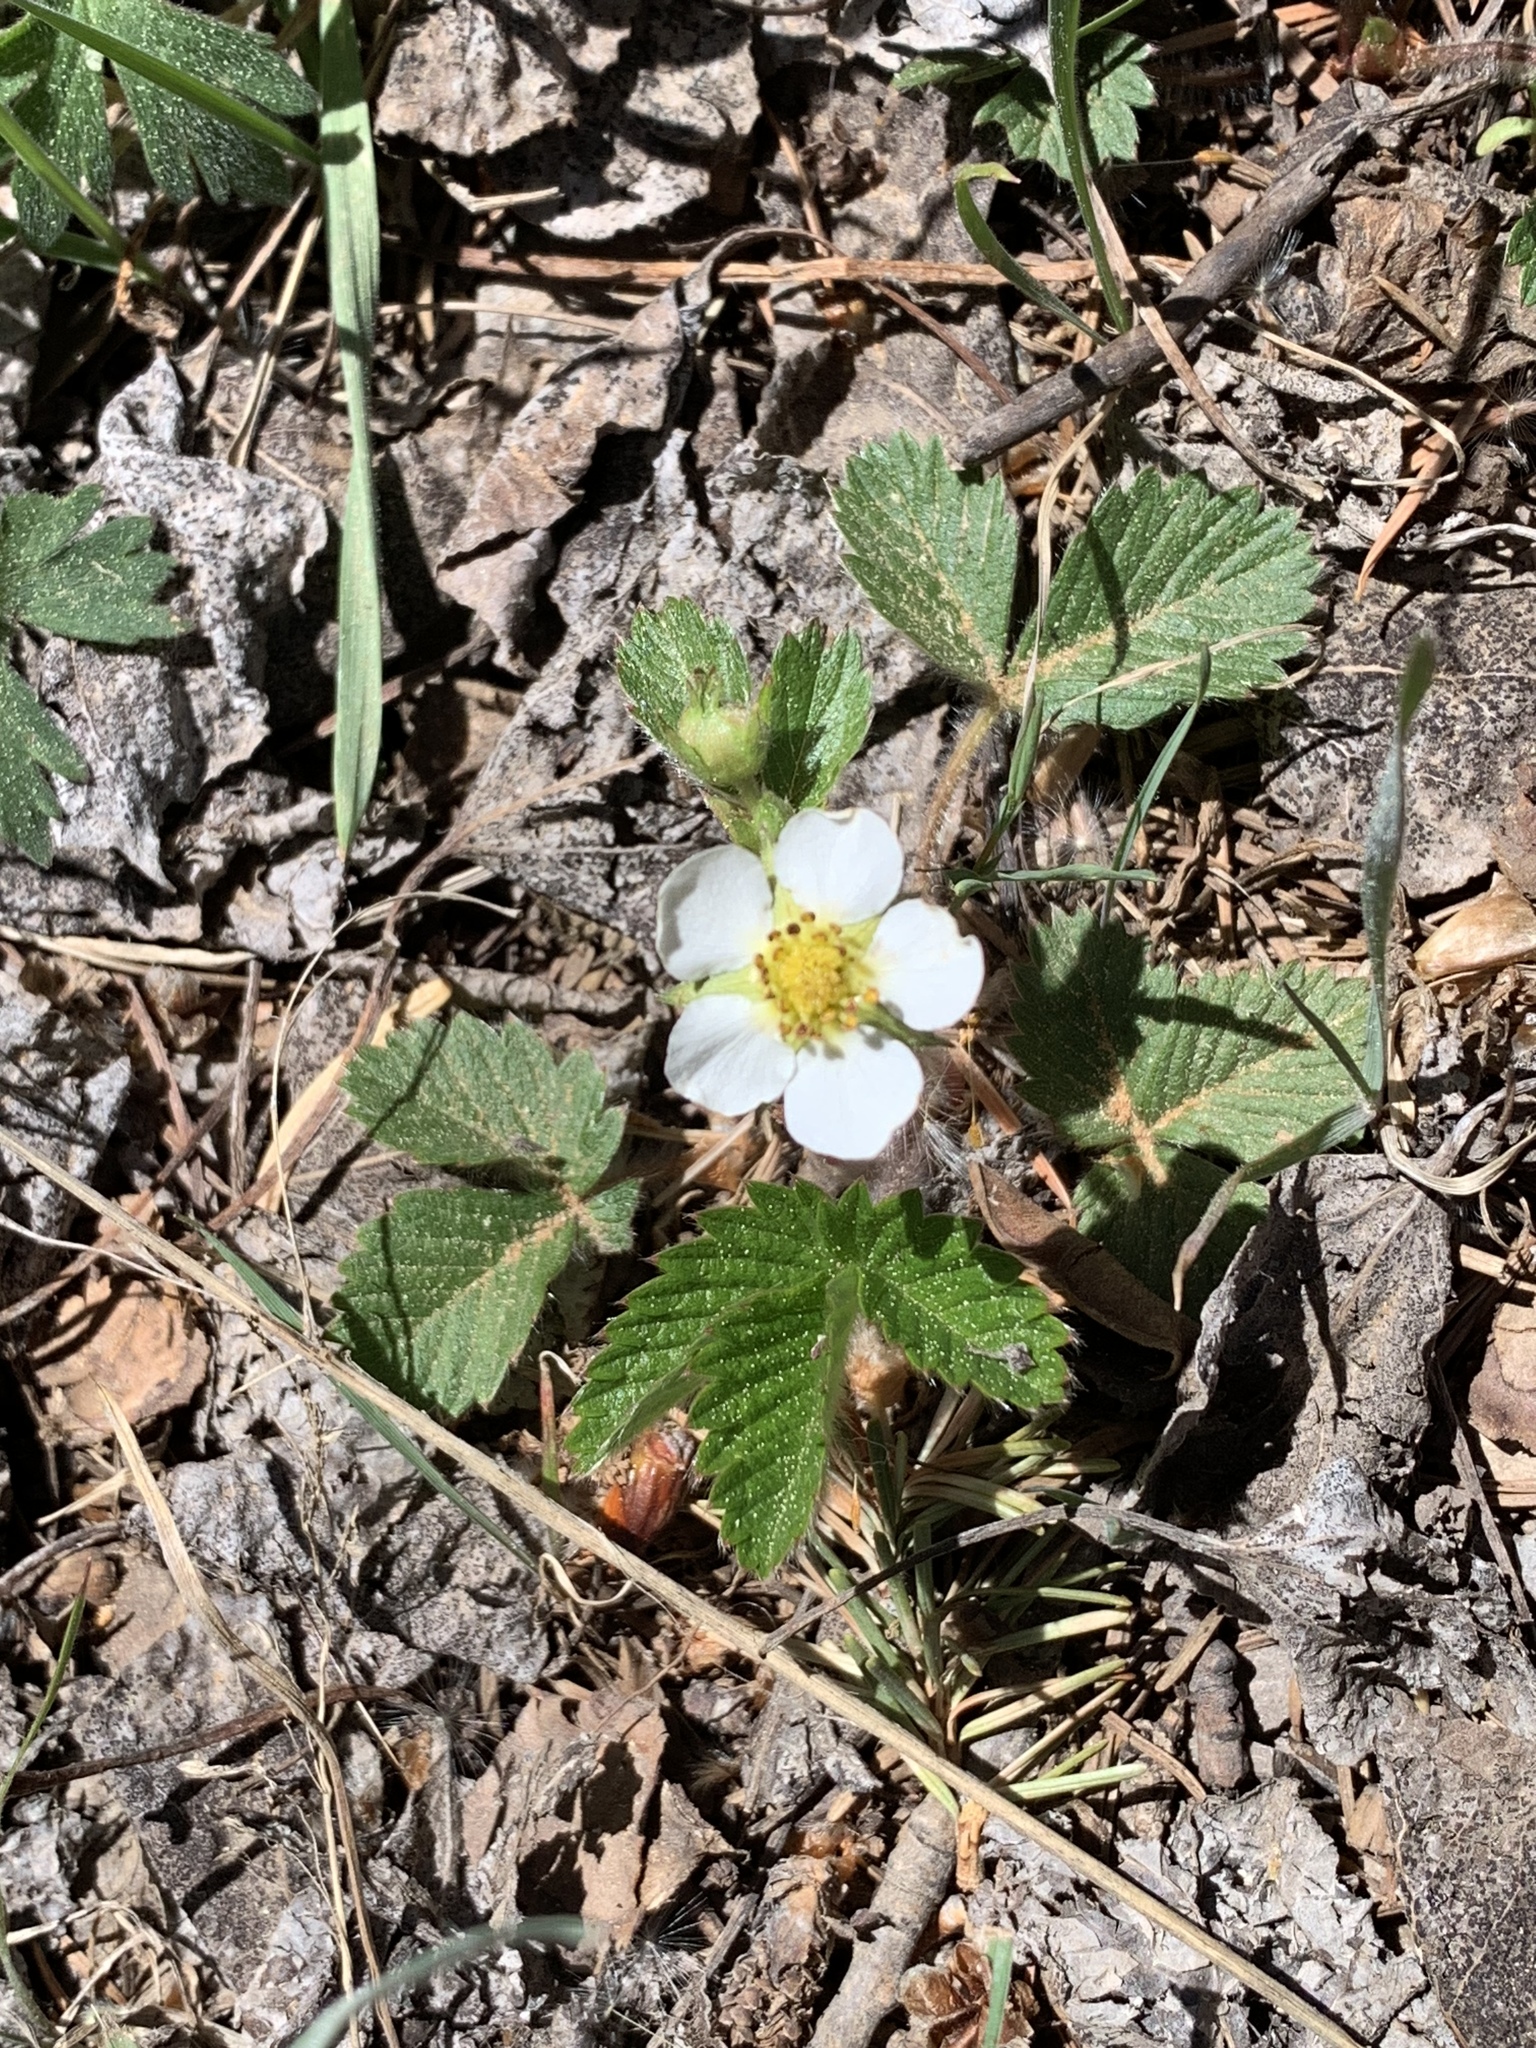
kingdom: Plantae
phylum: Tracheophyta
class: Magnoliopsida
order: Rosales
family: Rosaceae
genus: Fragaria
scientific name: Fragaria vesca
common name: Wild strawberry
